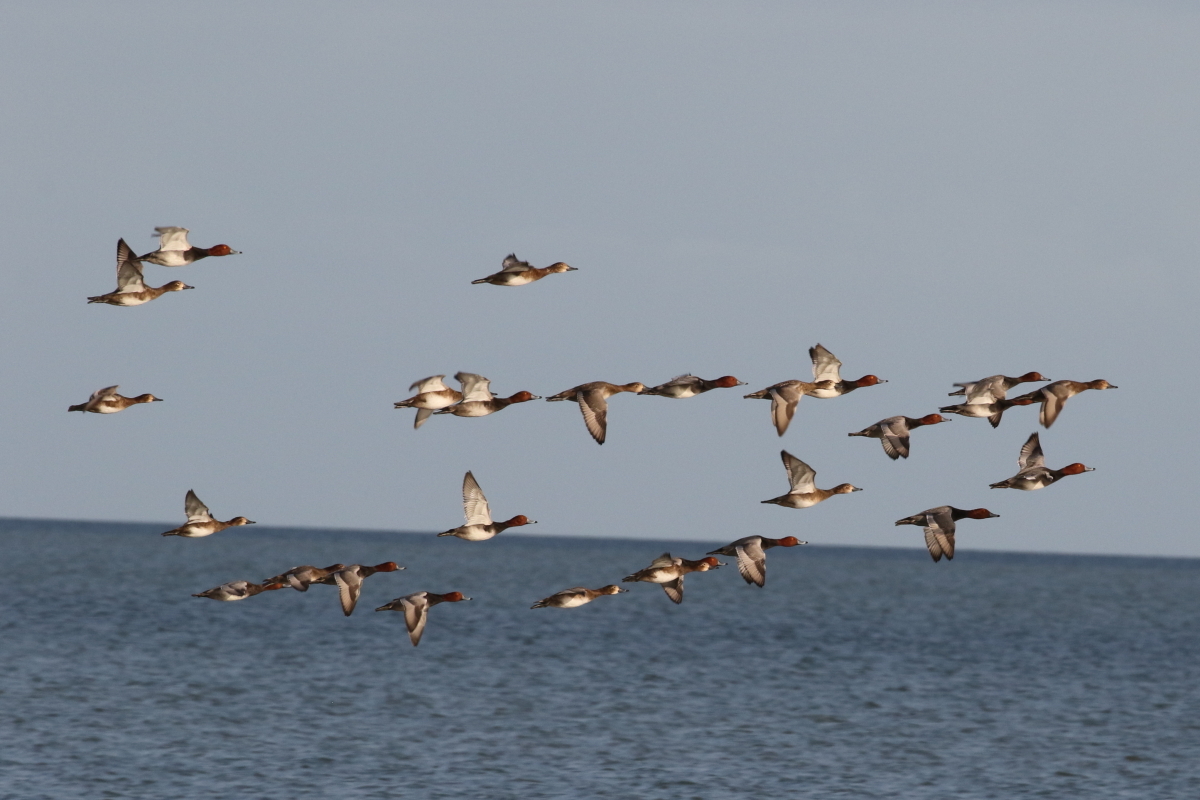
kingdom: Animalia
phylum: Chordata
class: Aves
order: Anseriformes
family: Anatidae
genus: Aythya
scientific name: Aythya americana
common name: Redhead
